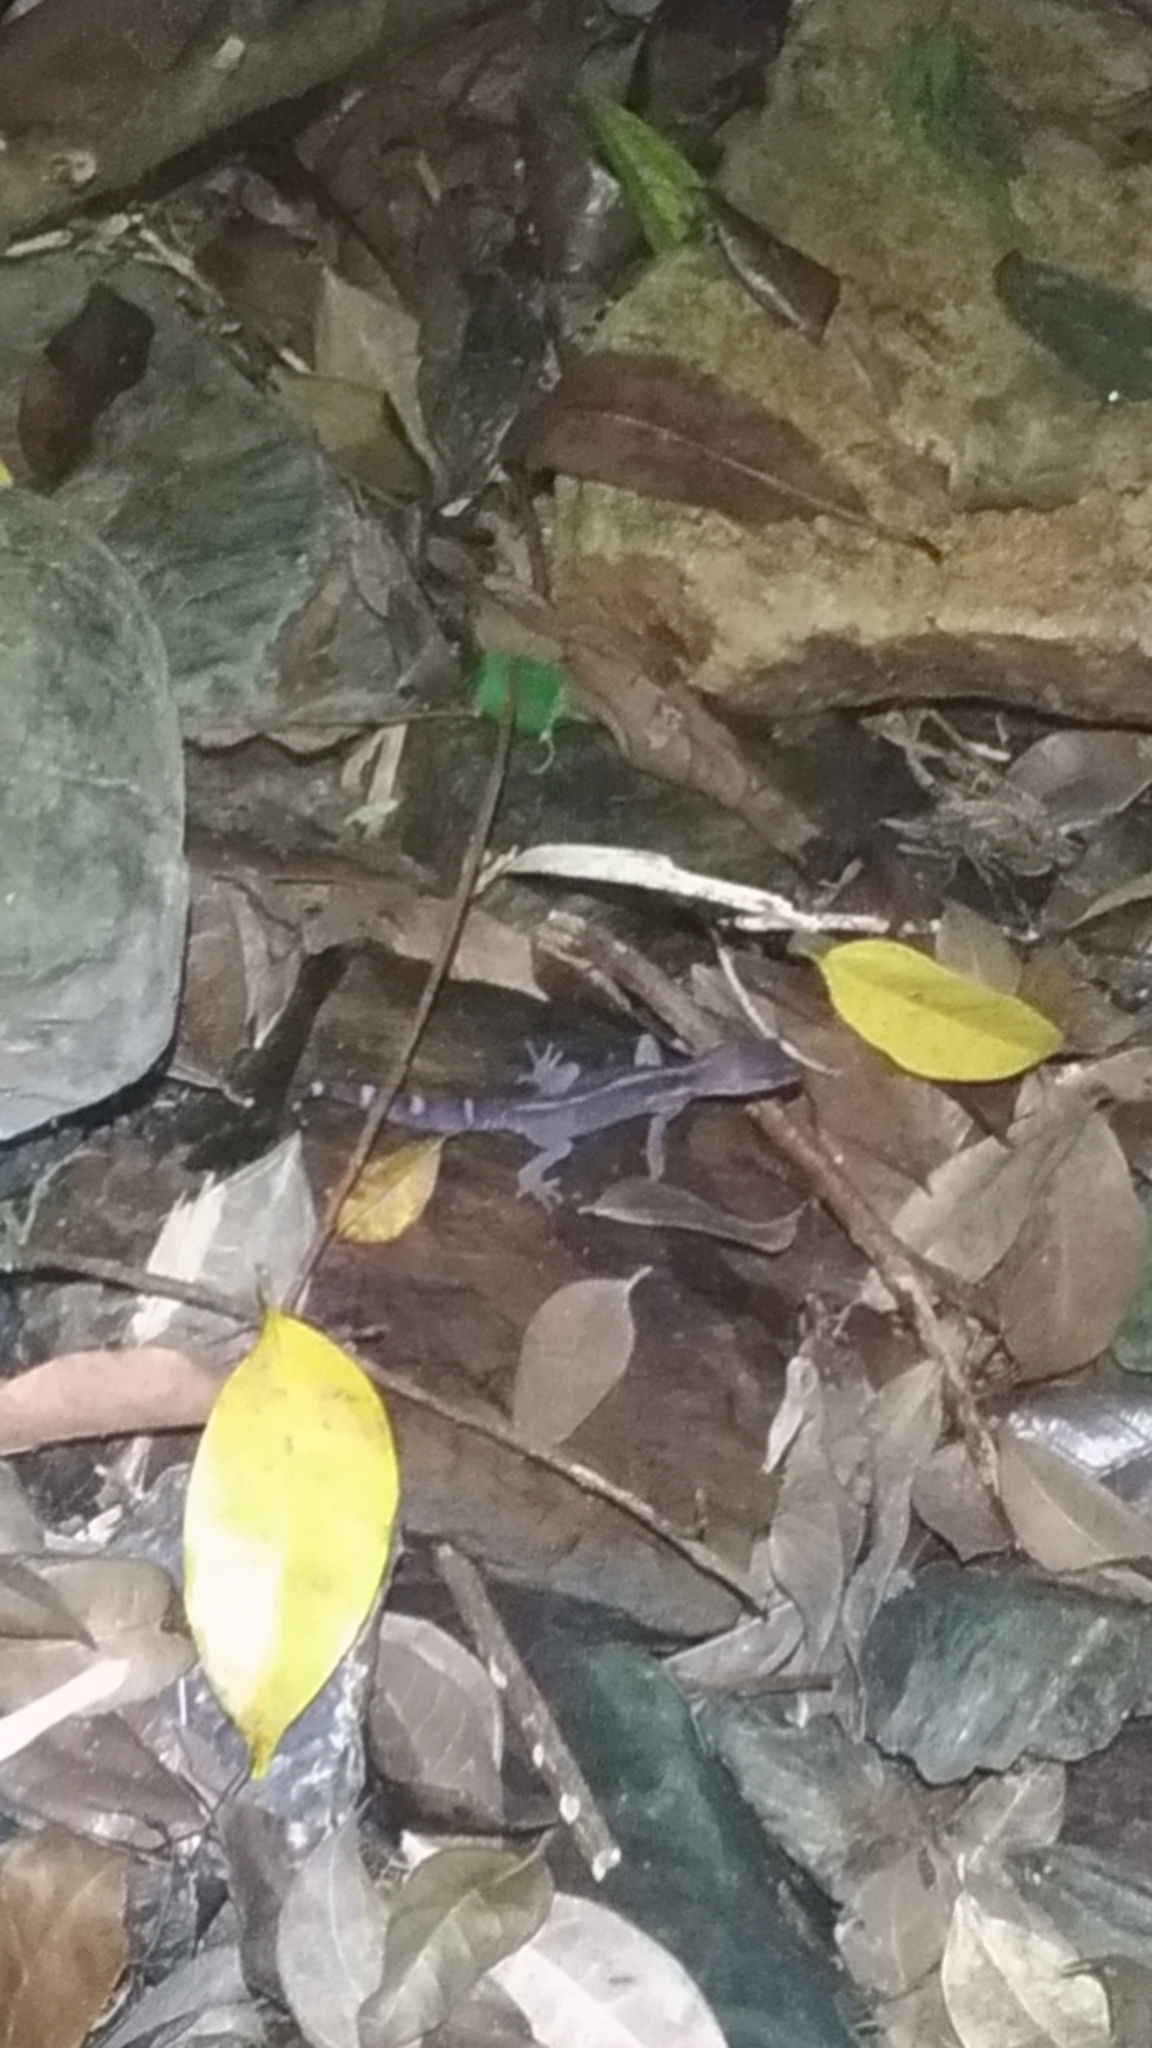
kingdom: Animalia
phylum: Chordata
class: Squamata
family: Eublepharidae
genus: Goniurosaurus
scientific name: Goniurosaurus kuroiwae
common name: Tokashiki gecko
